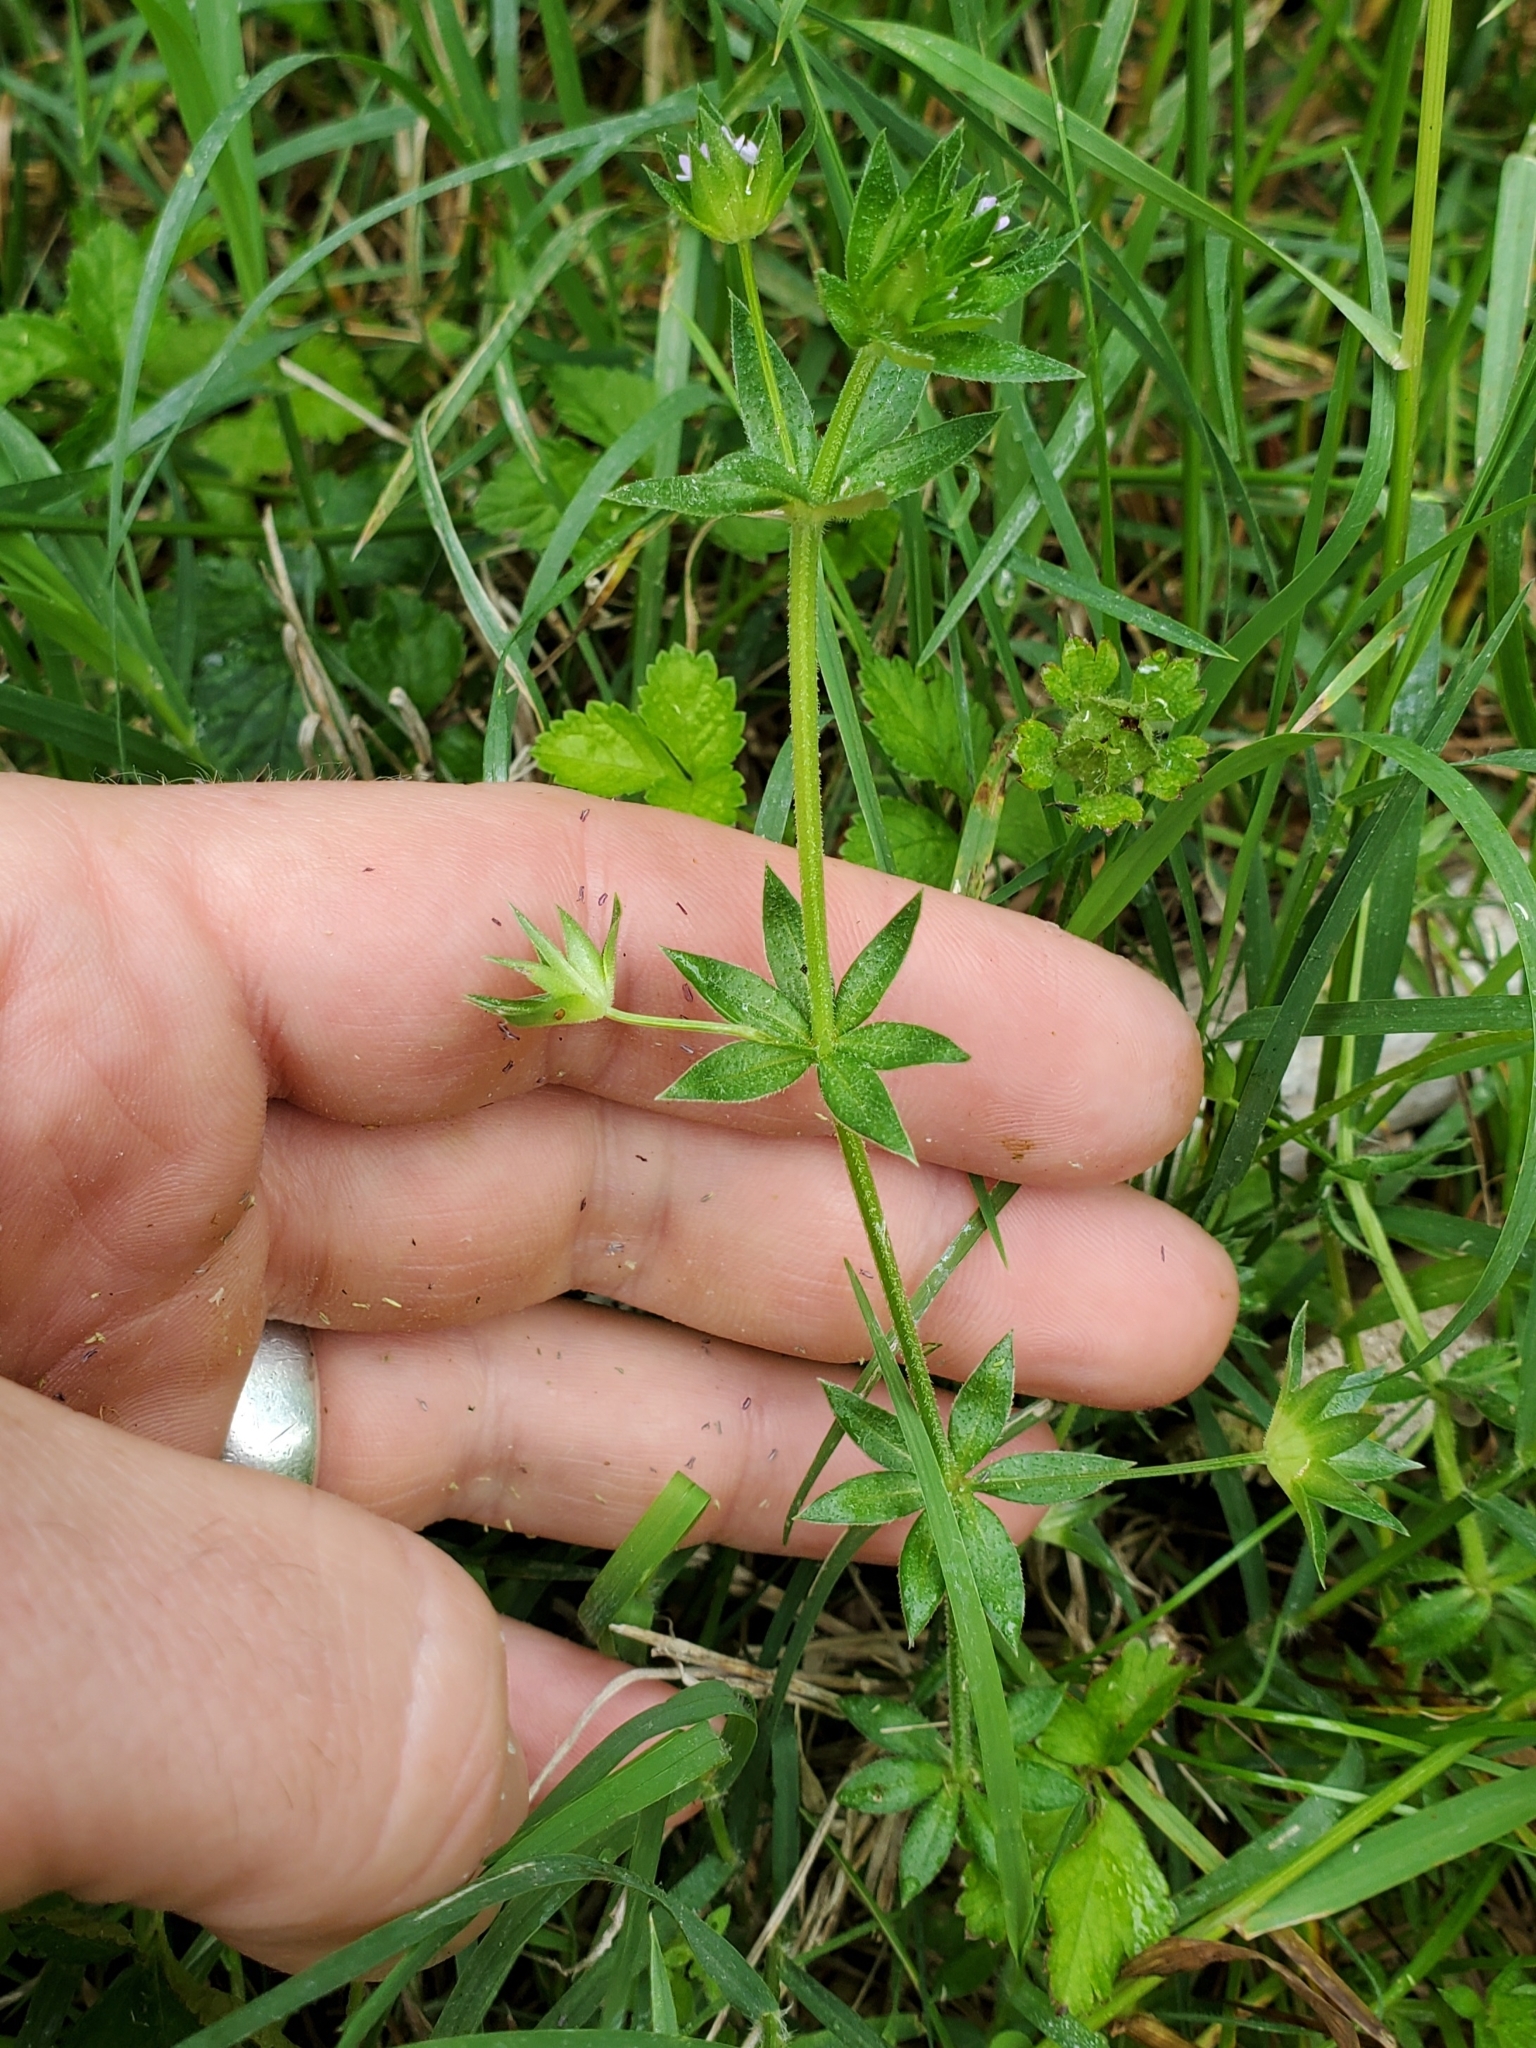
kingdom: Plantae
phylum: Tracheophyta
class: Magnoliopsida
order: Gentianales
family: Rubiaceae
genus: Sherardia
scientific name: Sherardia arvensis
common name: Field madder
